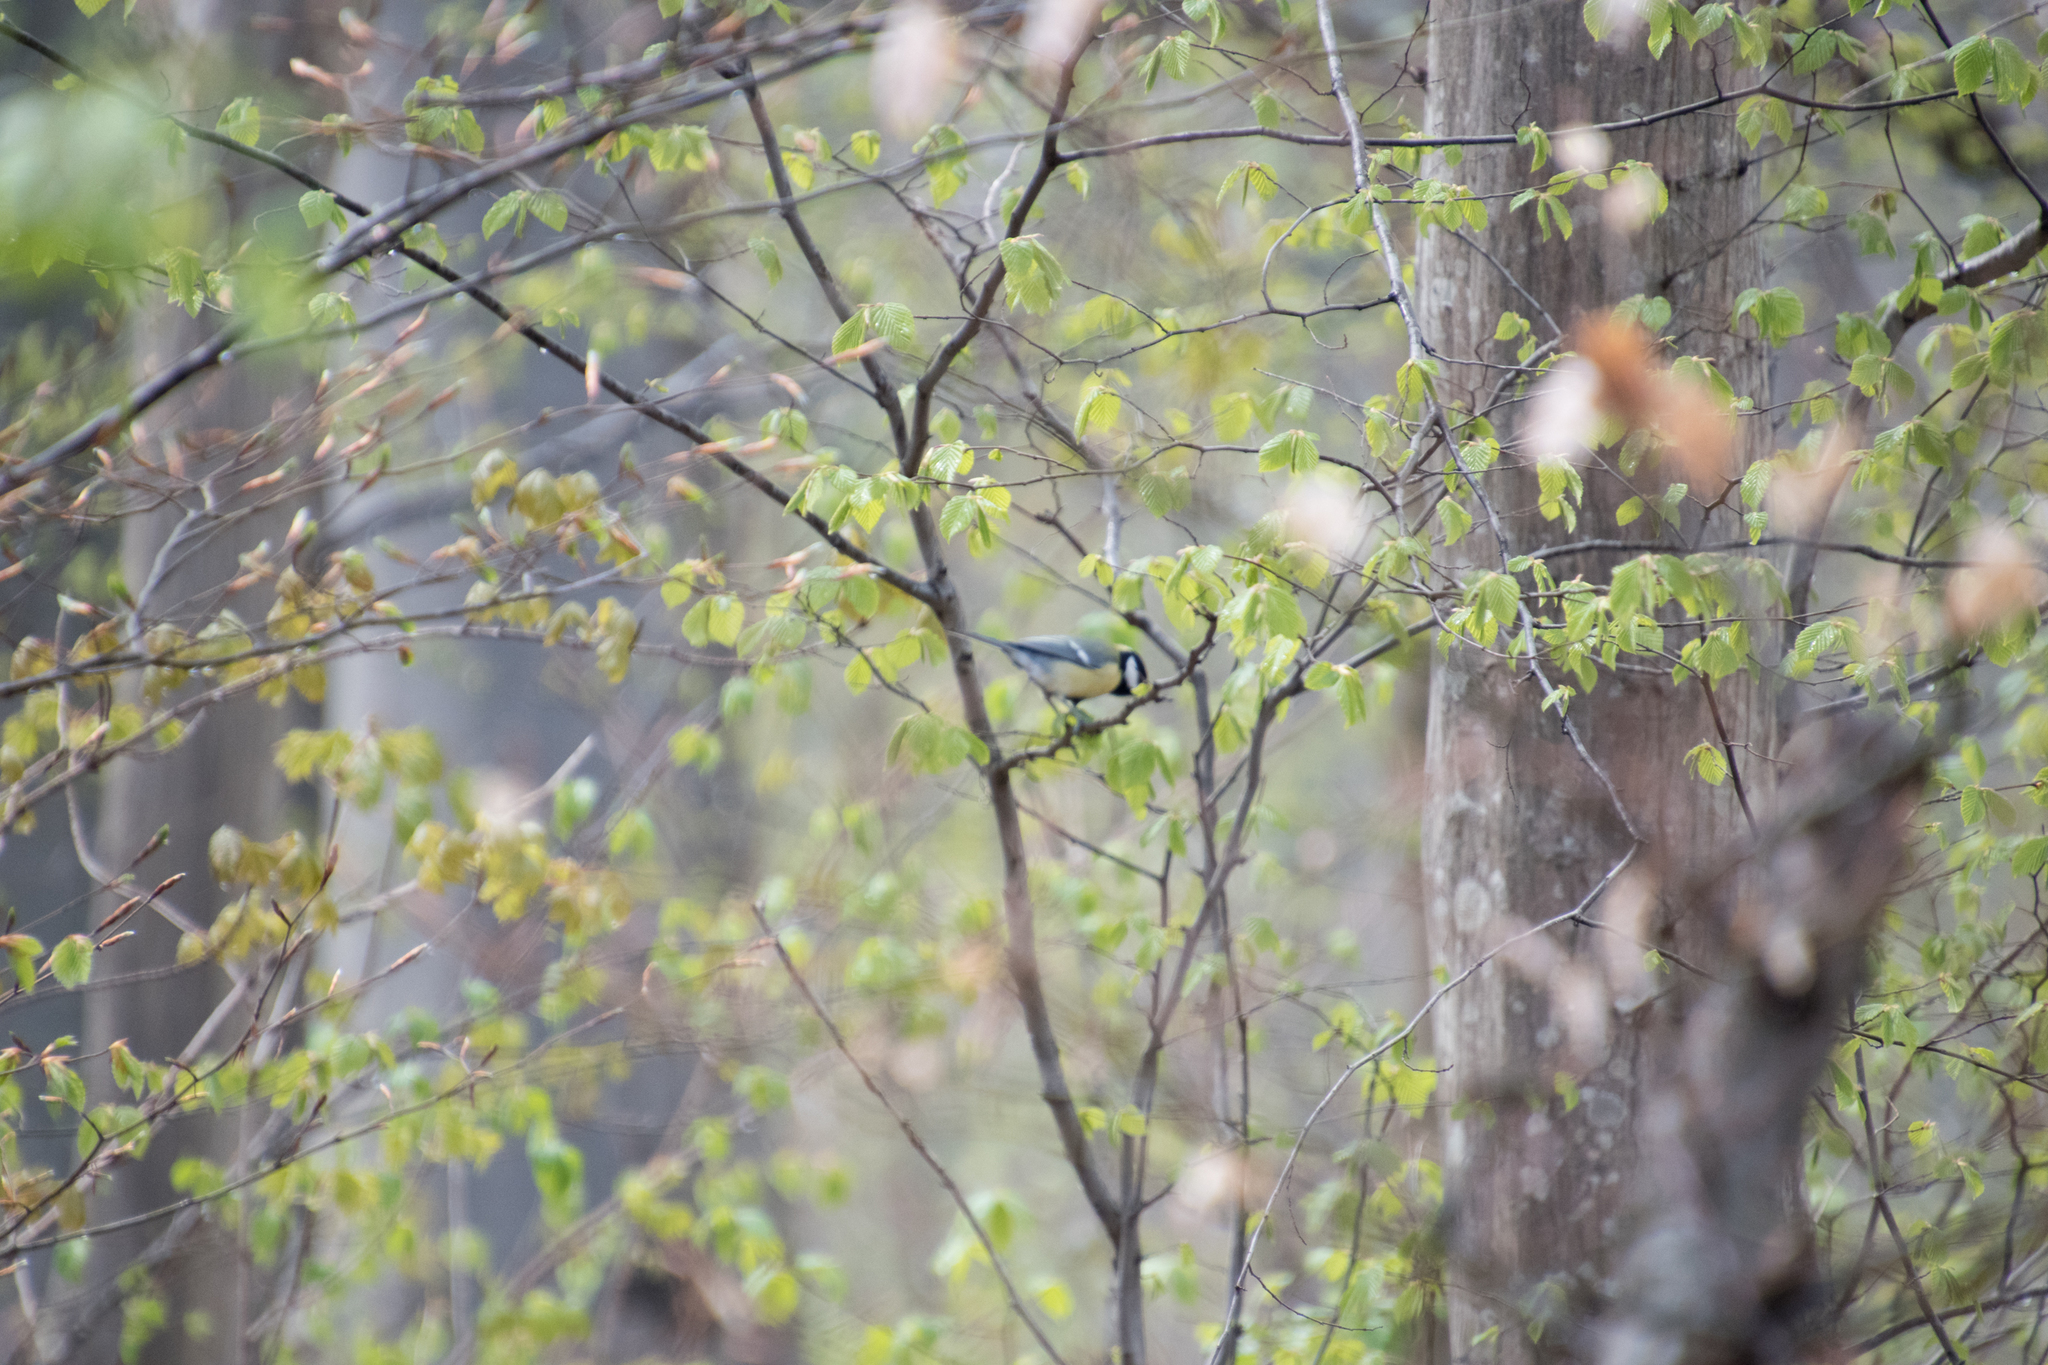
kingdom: Animalia
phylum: Chordata
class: Aves
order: Passeriformes
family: Paridae
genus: Parus
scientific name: Parus major
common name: Great tit
